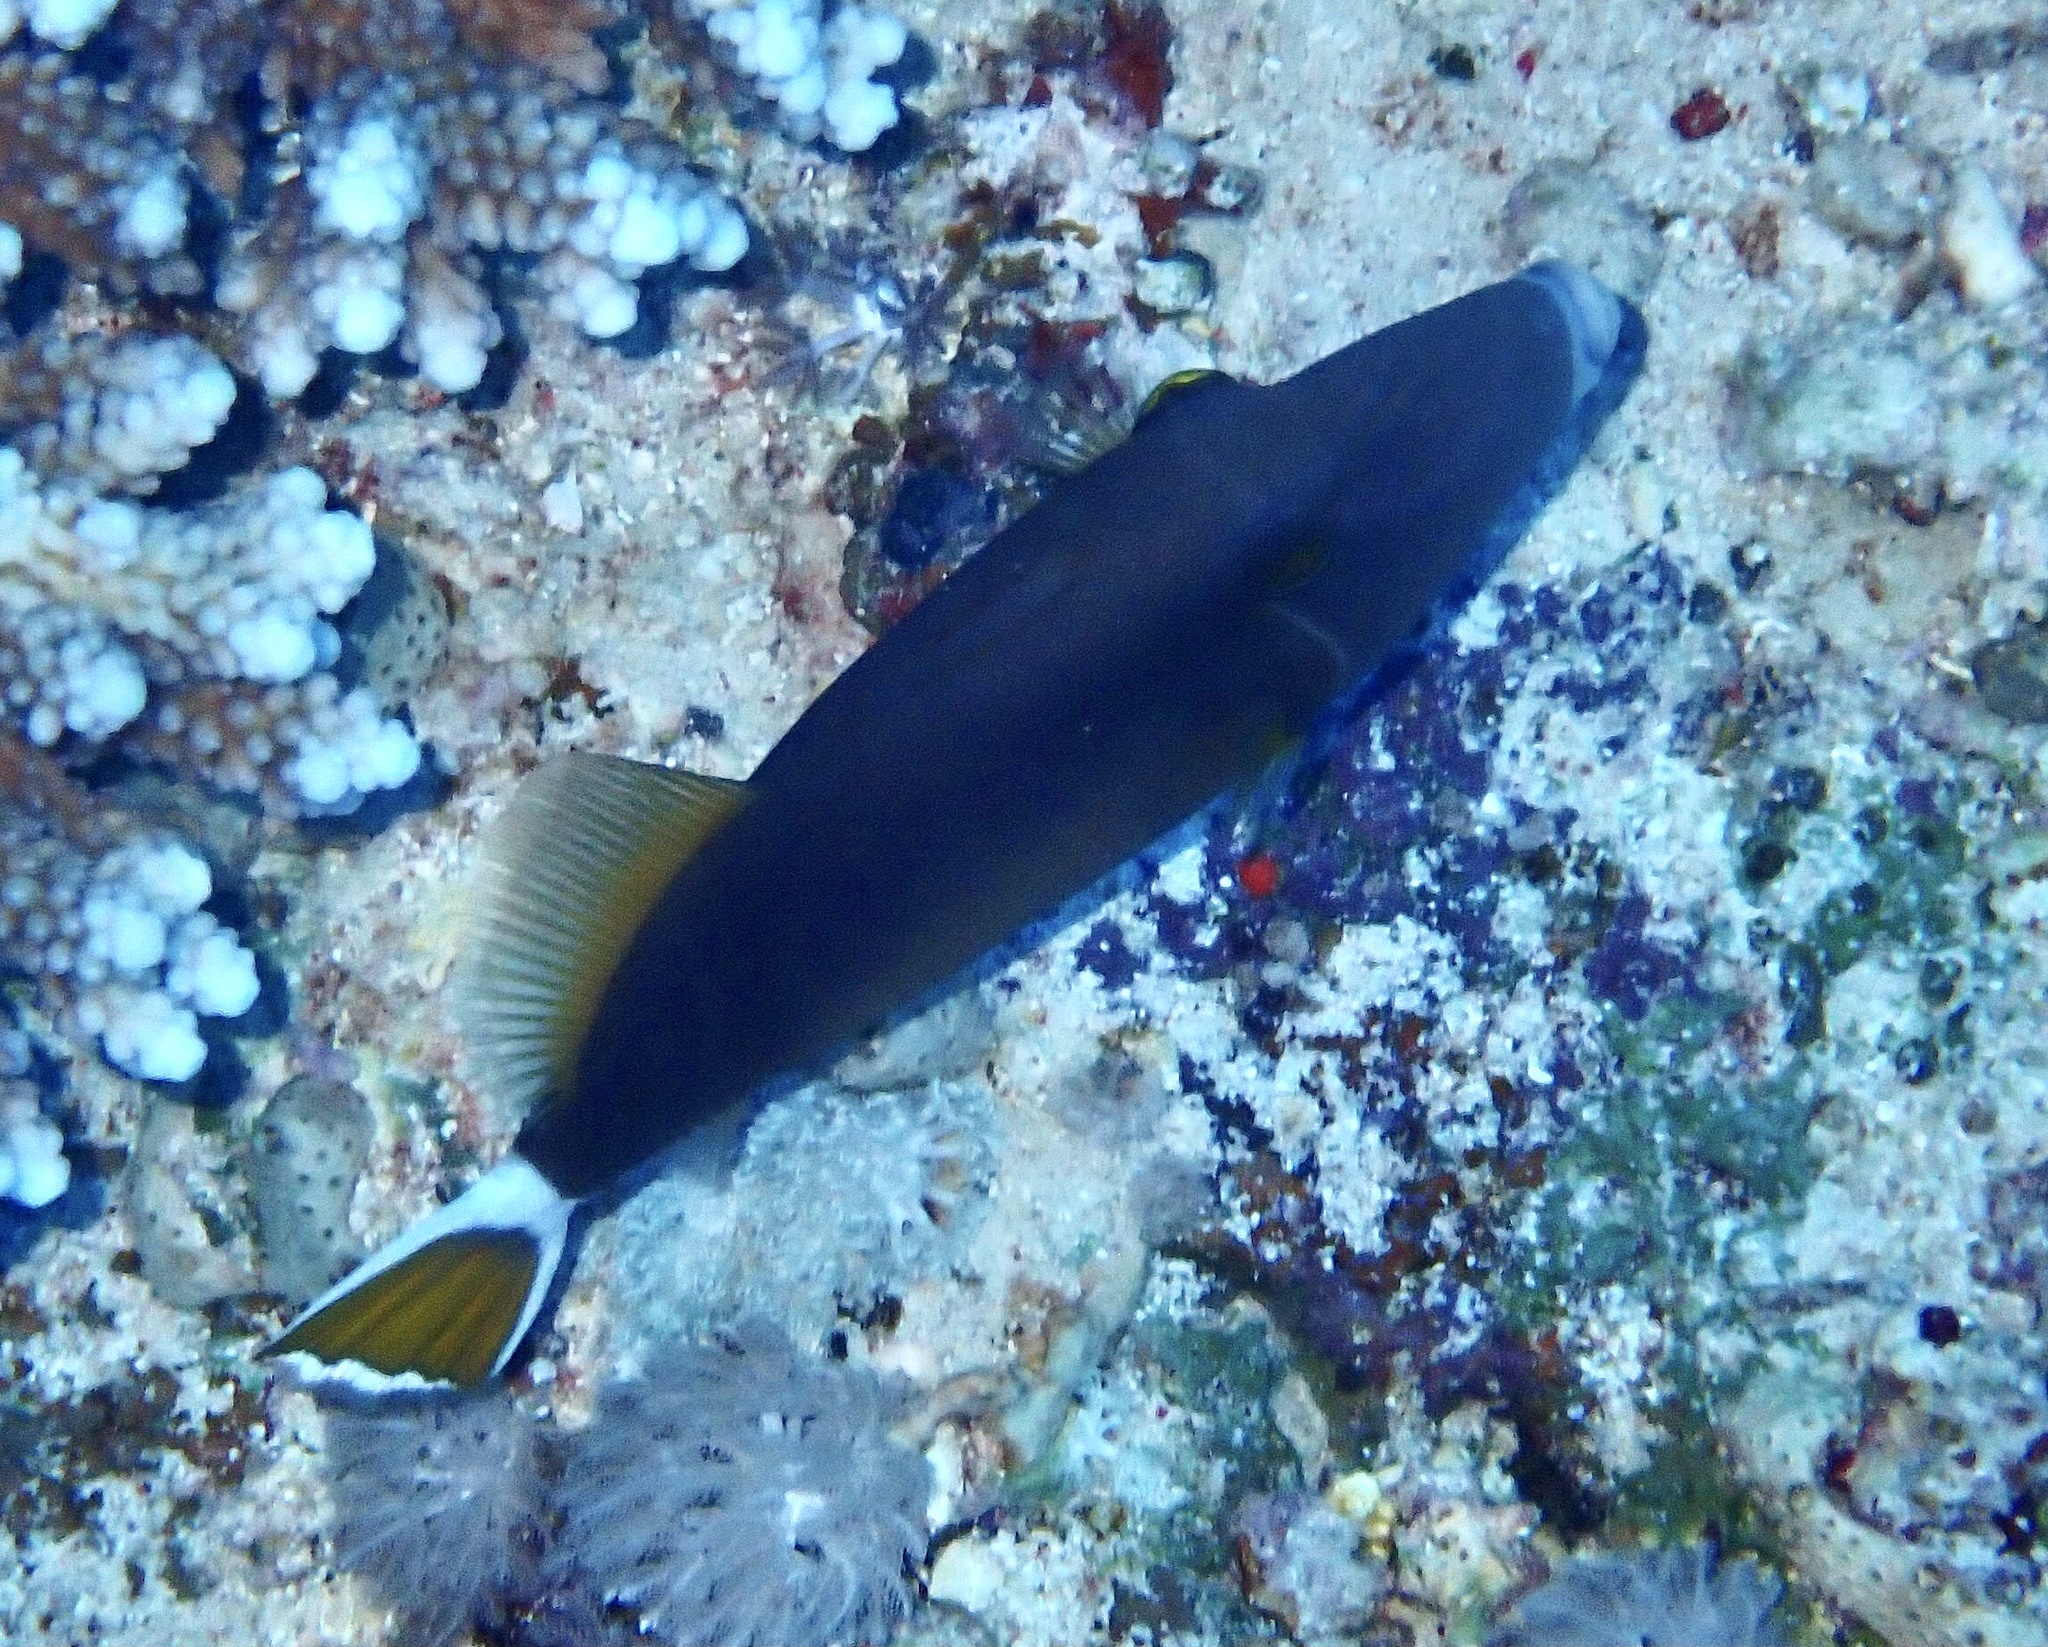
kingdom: Animalia
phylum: Chordata
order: Tetraodontiformes
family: Balistidae
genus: Sufflamen
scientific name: Sufflamen albicaudatum
